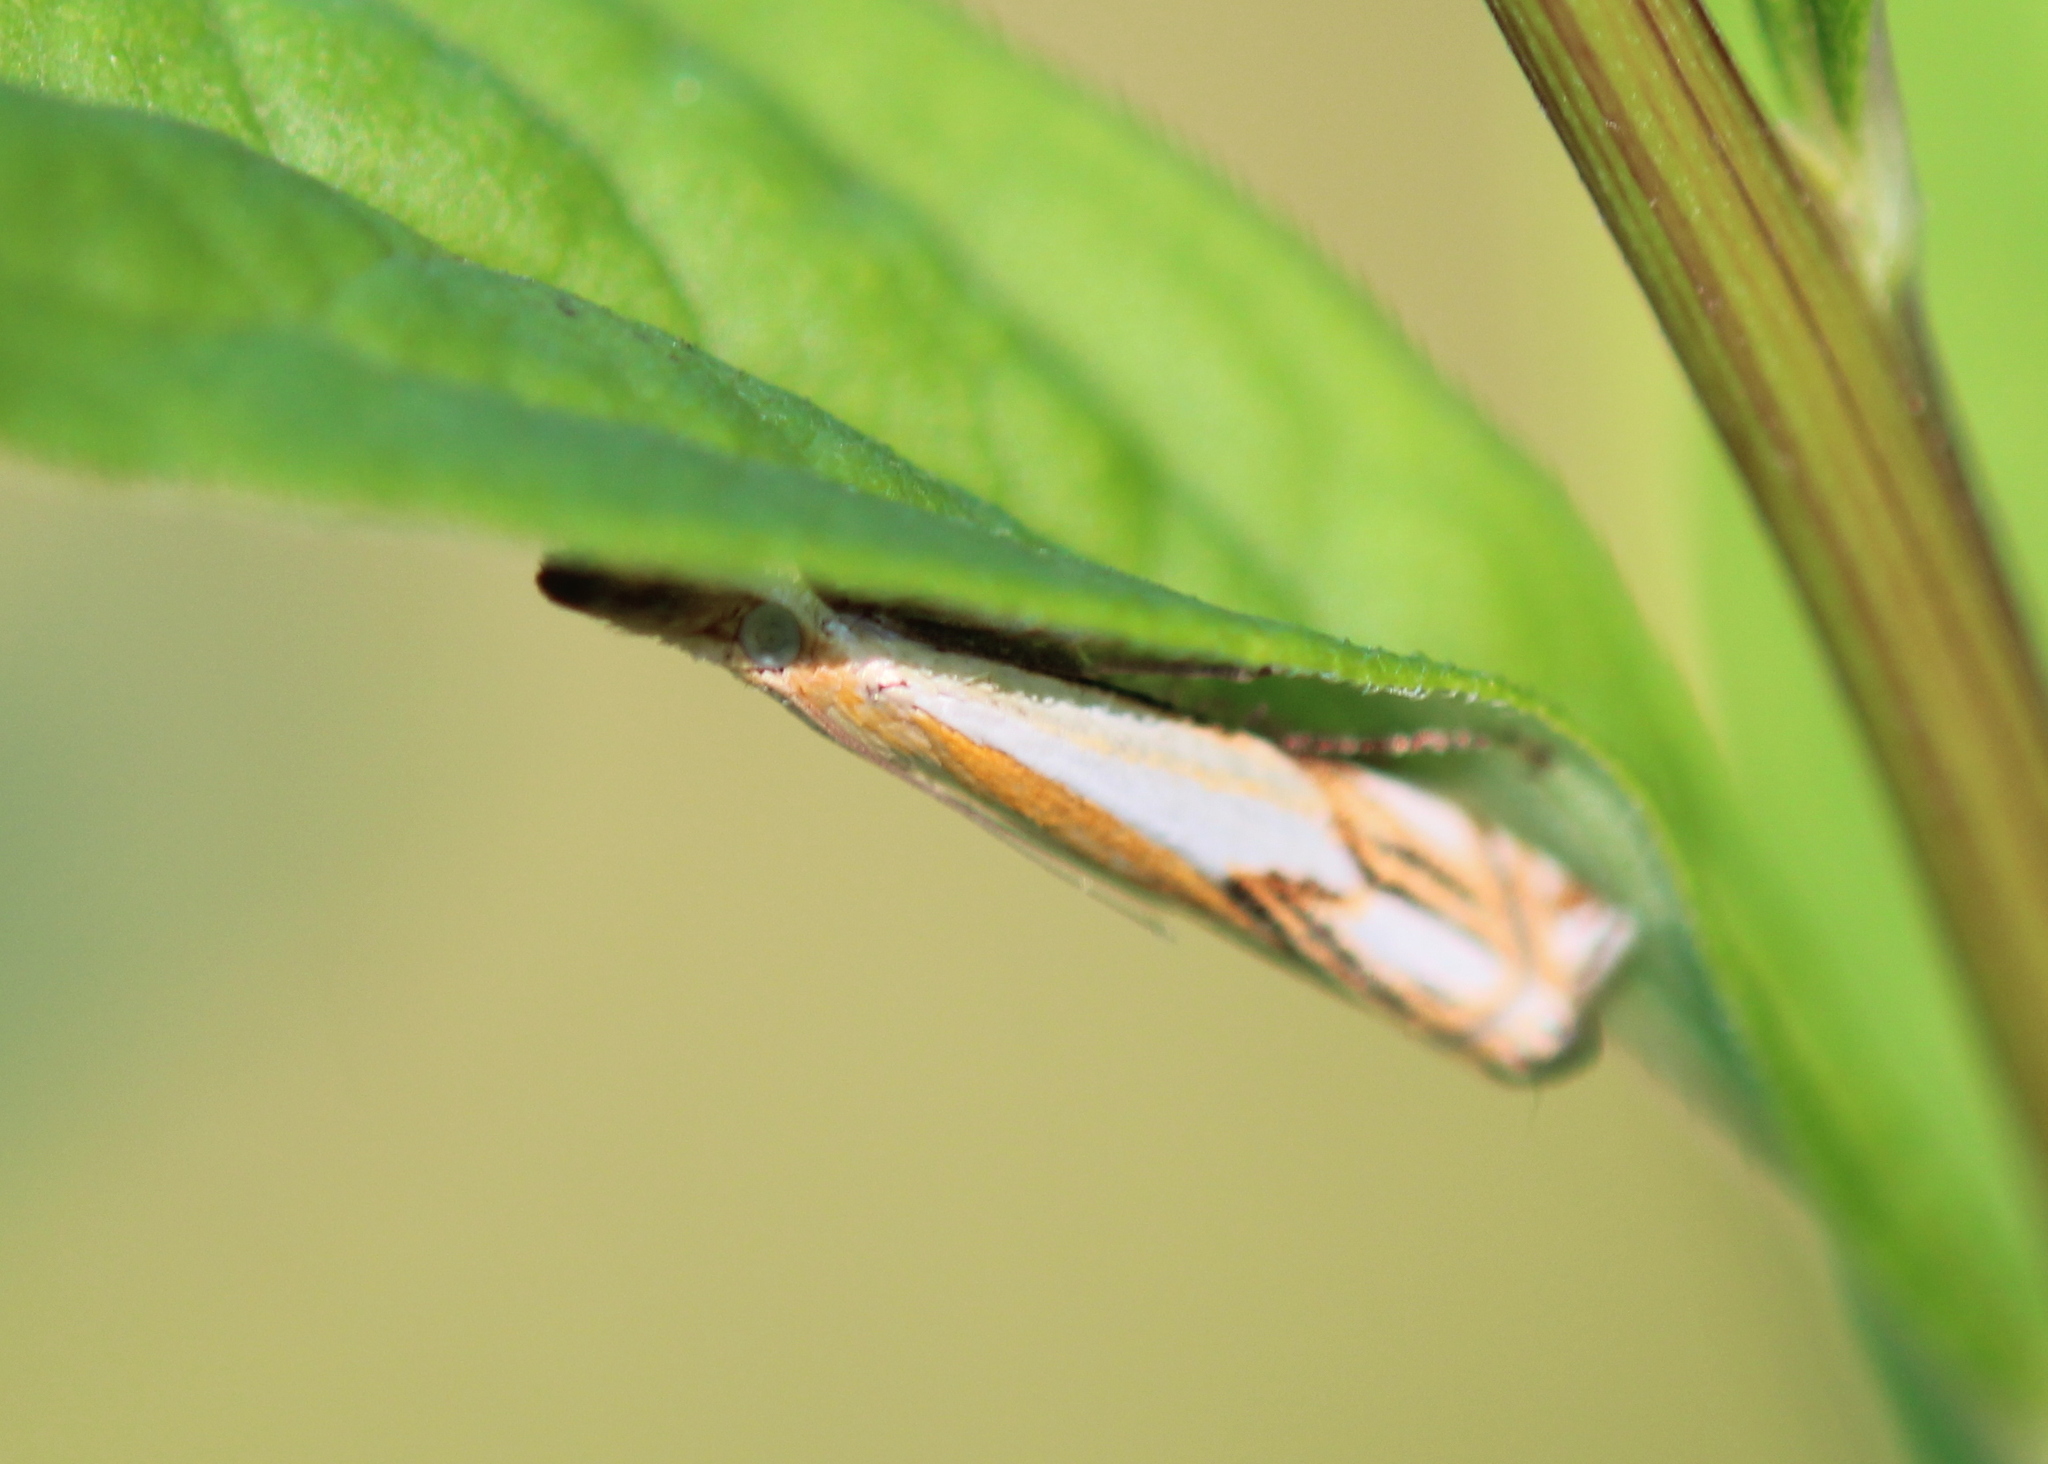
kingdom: Animalia
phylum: Arthropoda
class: Insecta
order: Lepidoptera
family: Crambidae
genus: Crambus
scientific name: Crambus agitatellus
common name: Double-banded grass-veneer
